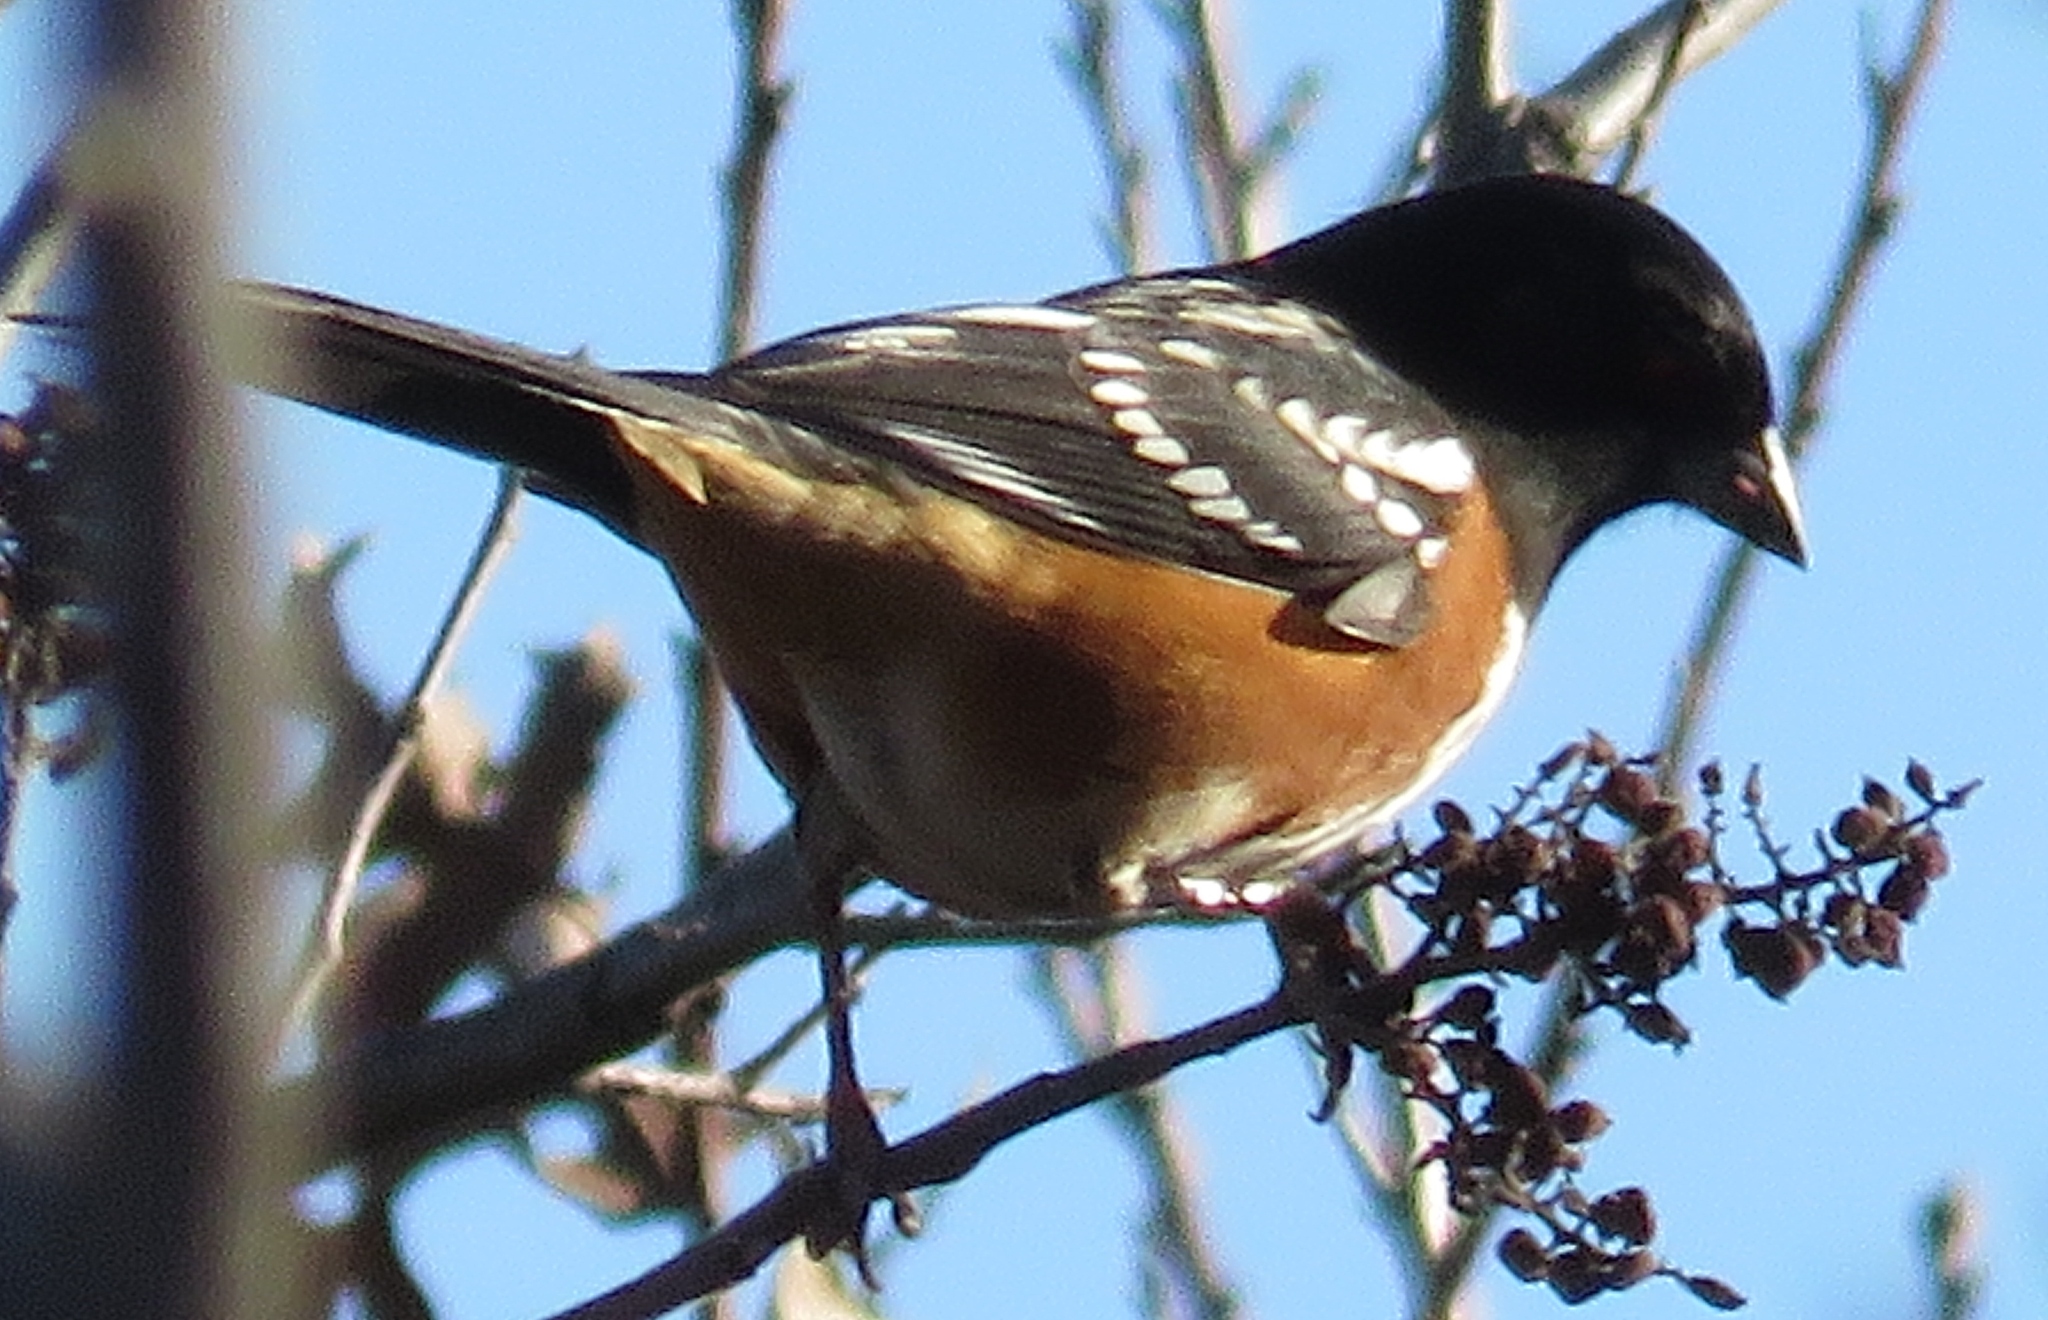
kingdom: Animalia
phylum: Chordata
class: Aves
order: Passeriformes
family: Passerellidae
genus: Pipilo
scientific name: Pipilo maculatus
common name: Spotted towhee
